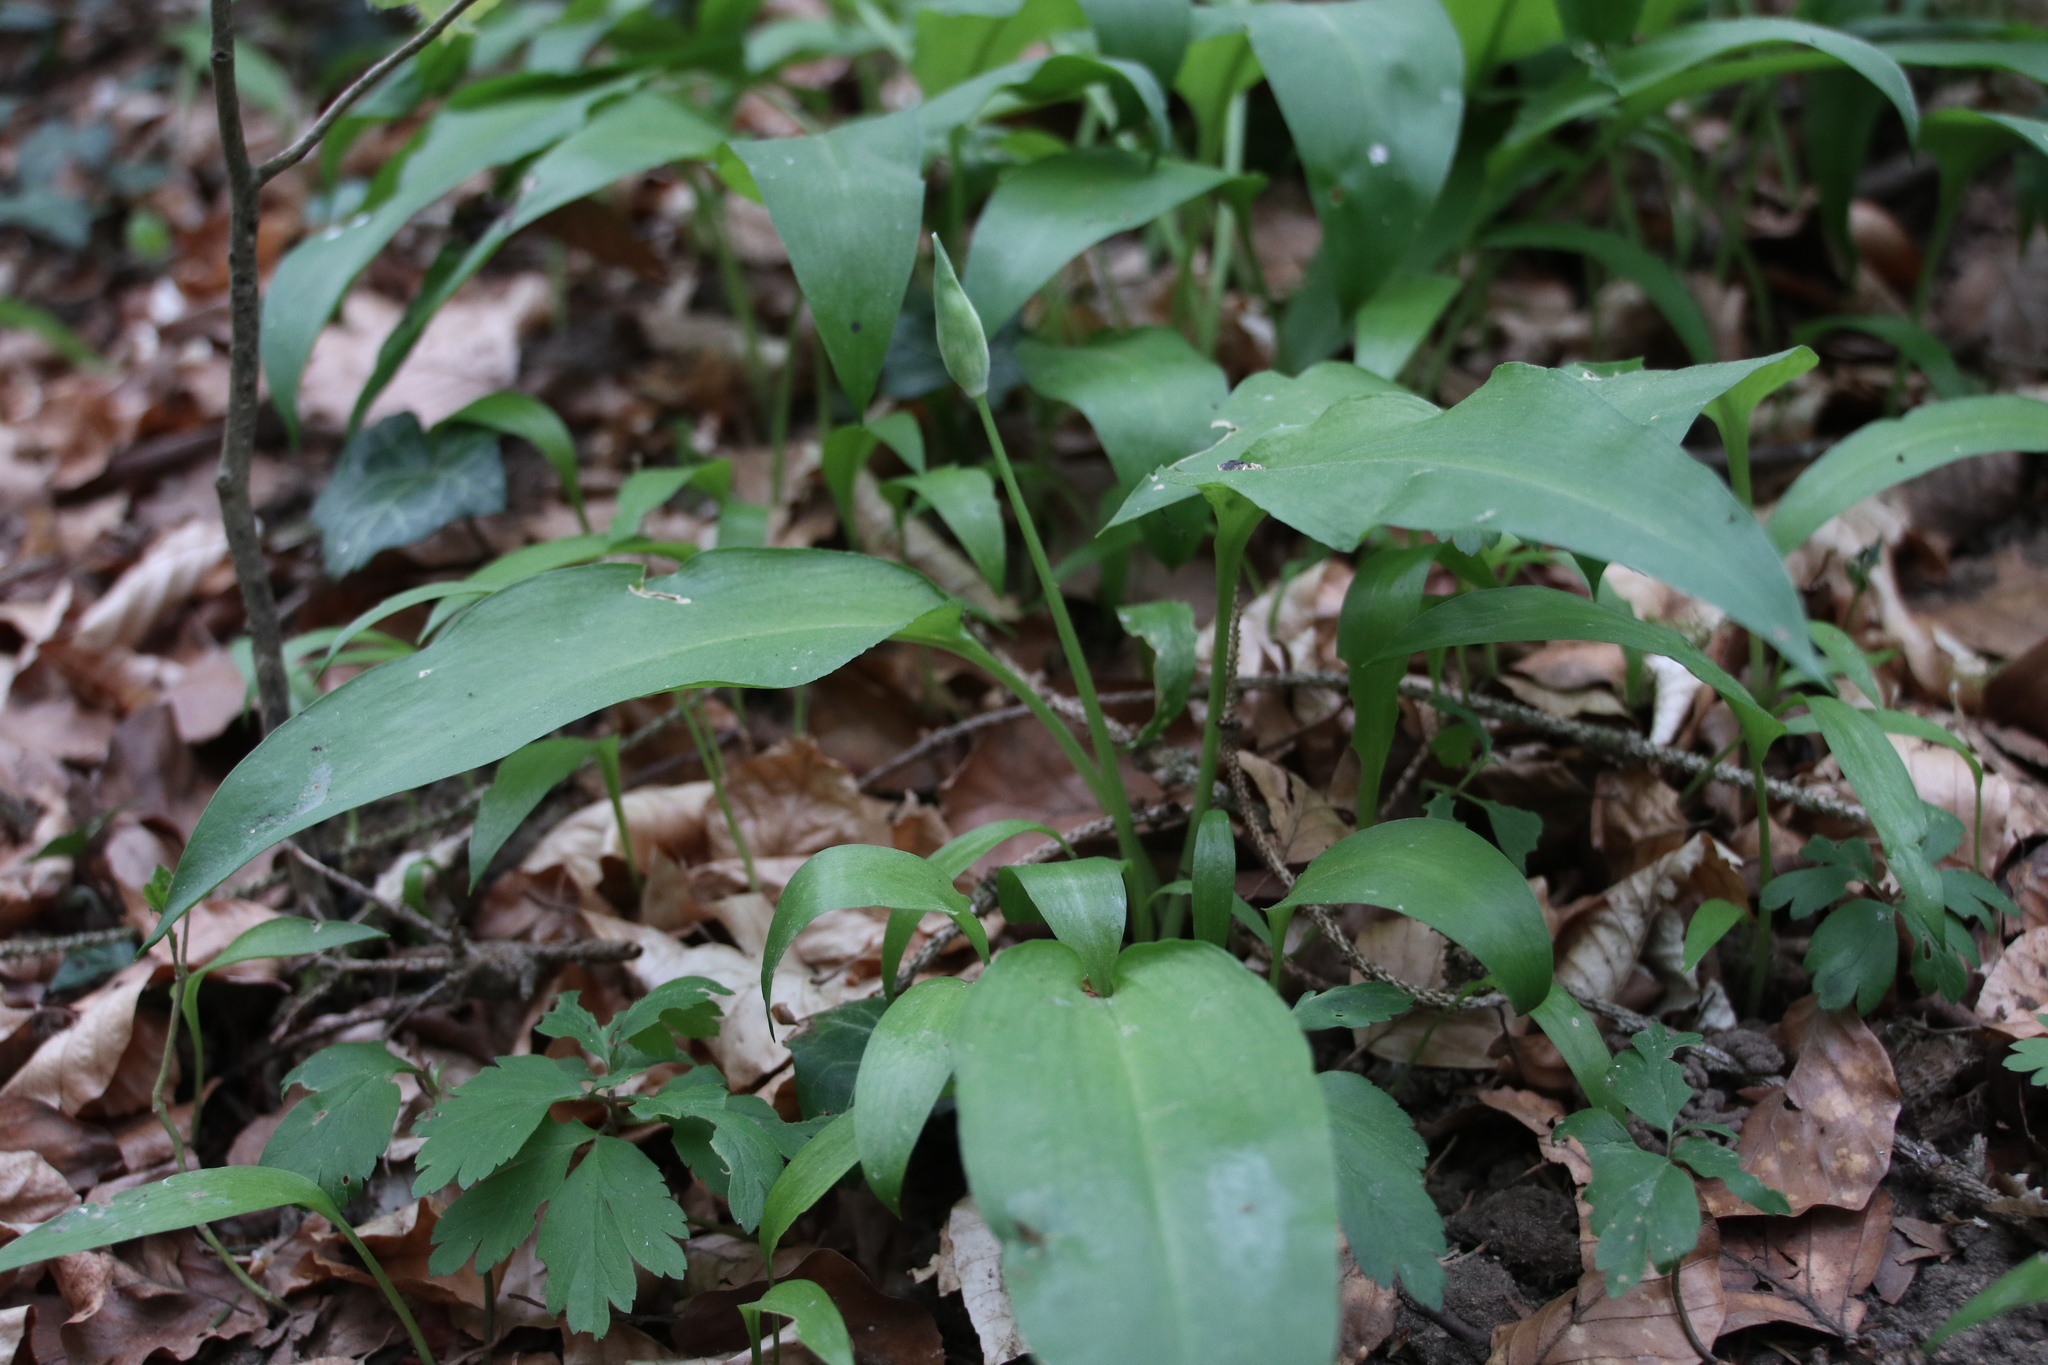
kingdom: Plantae
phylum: Tracheophyta
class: Liliopsida
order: Asparagales
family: Amaryllidaceae
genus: Allium
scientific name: Allium ursinum
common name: Ramsons
